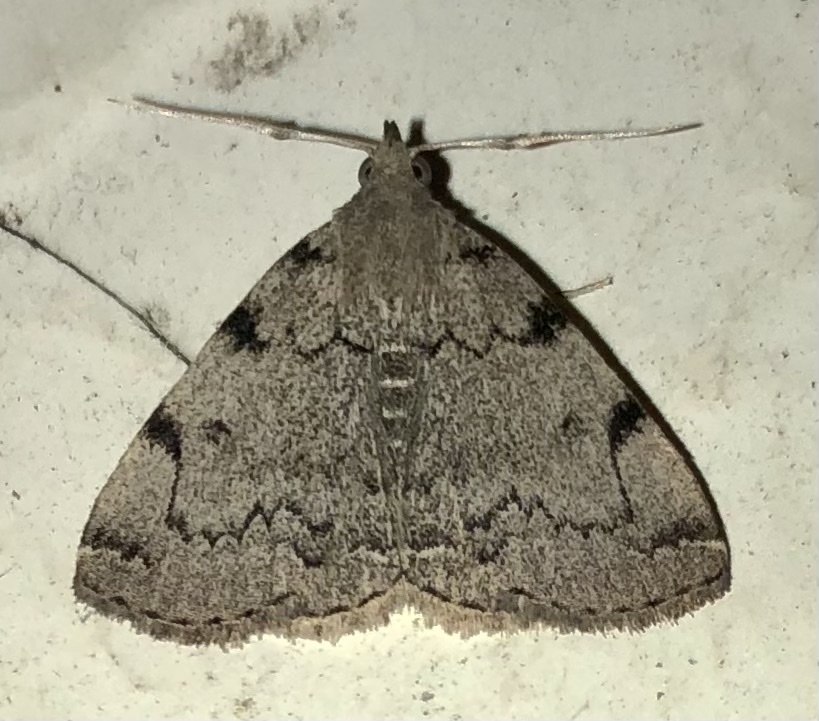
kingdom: Animalia
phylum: Arthropoda
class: Insecta
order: Lepidoptera
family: Erebidae
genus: Zanclognatha
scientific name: Zanclognatha theralis
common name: Flagged fan-foot
